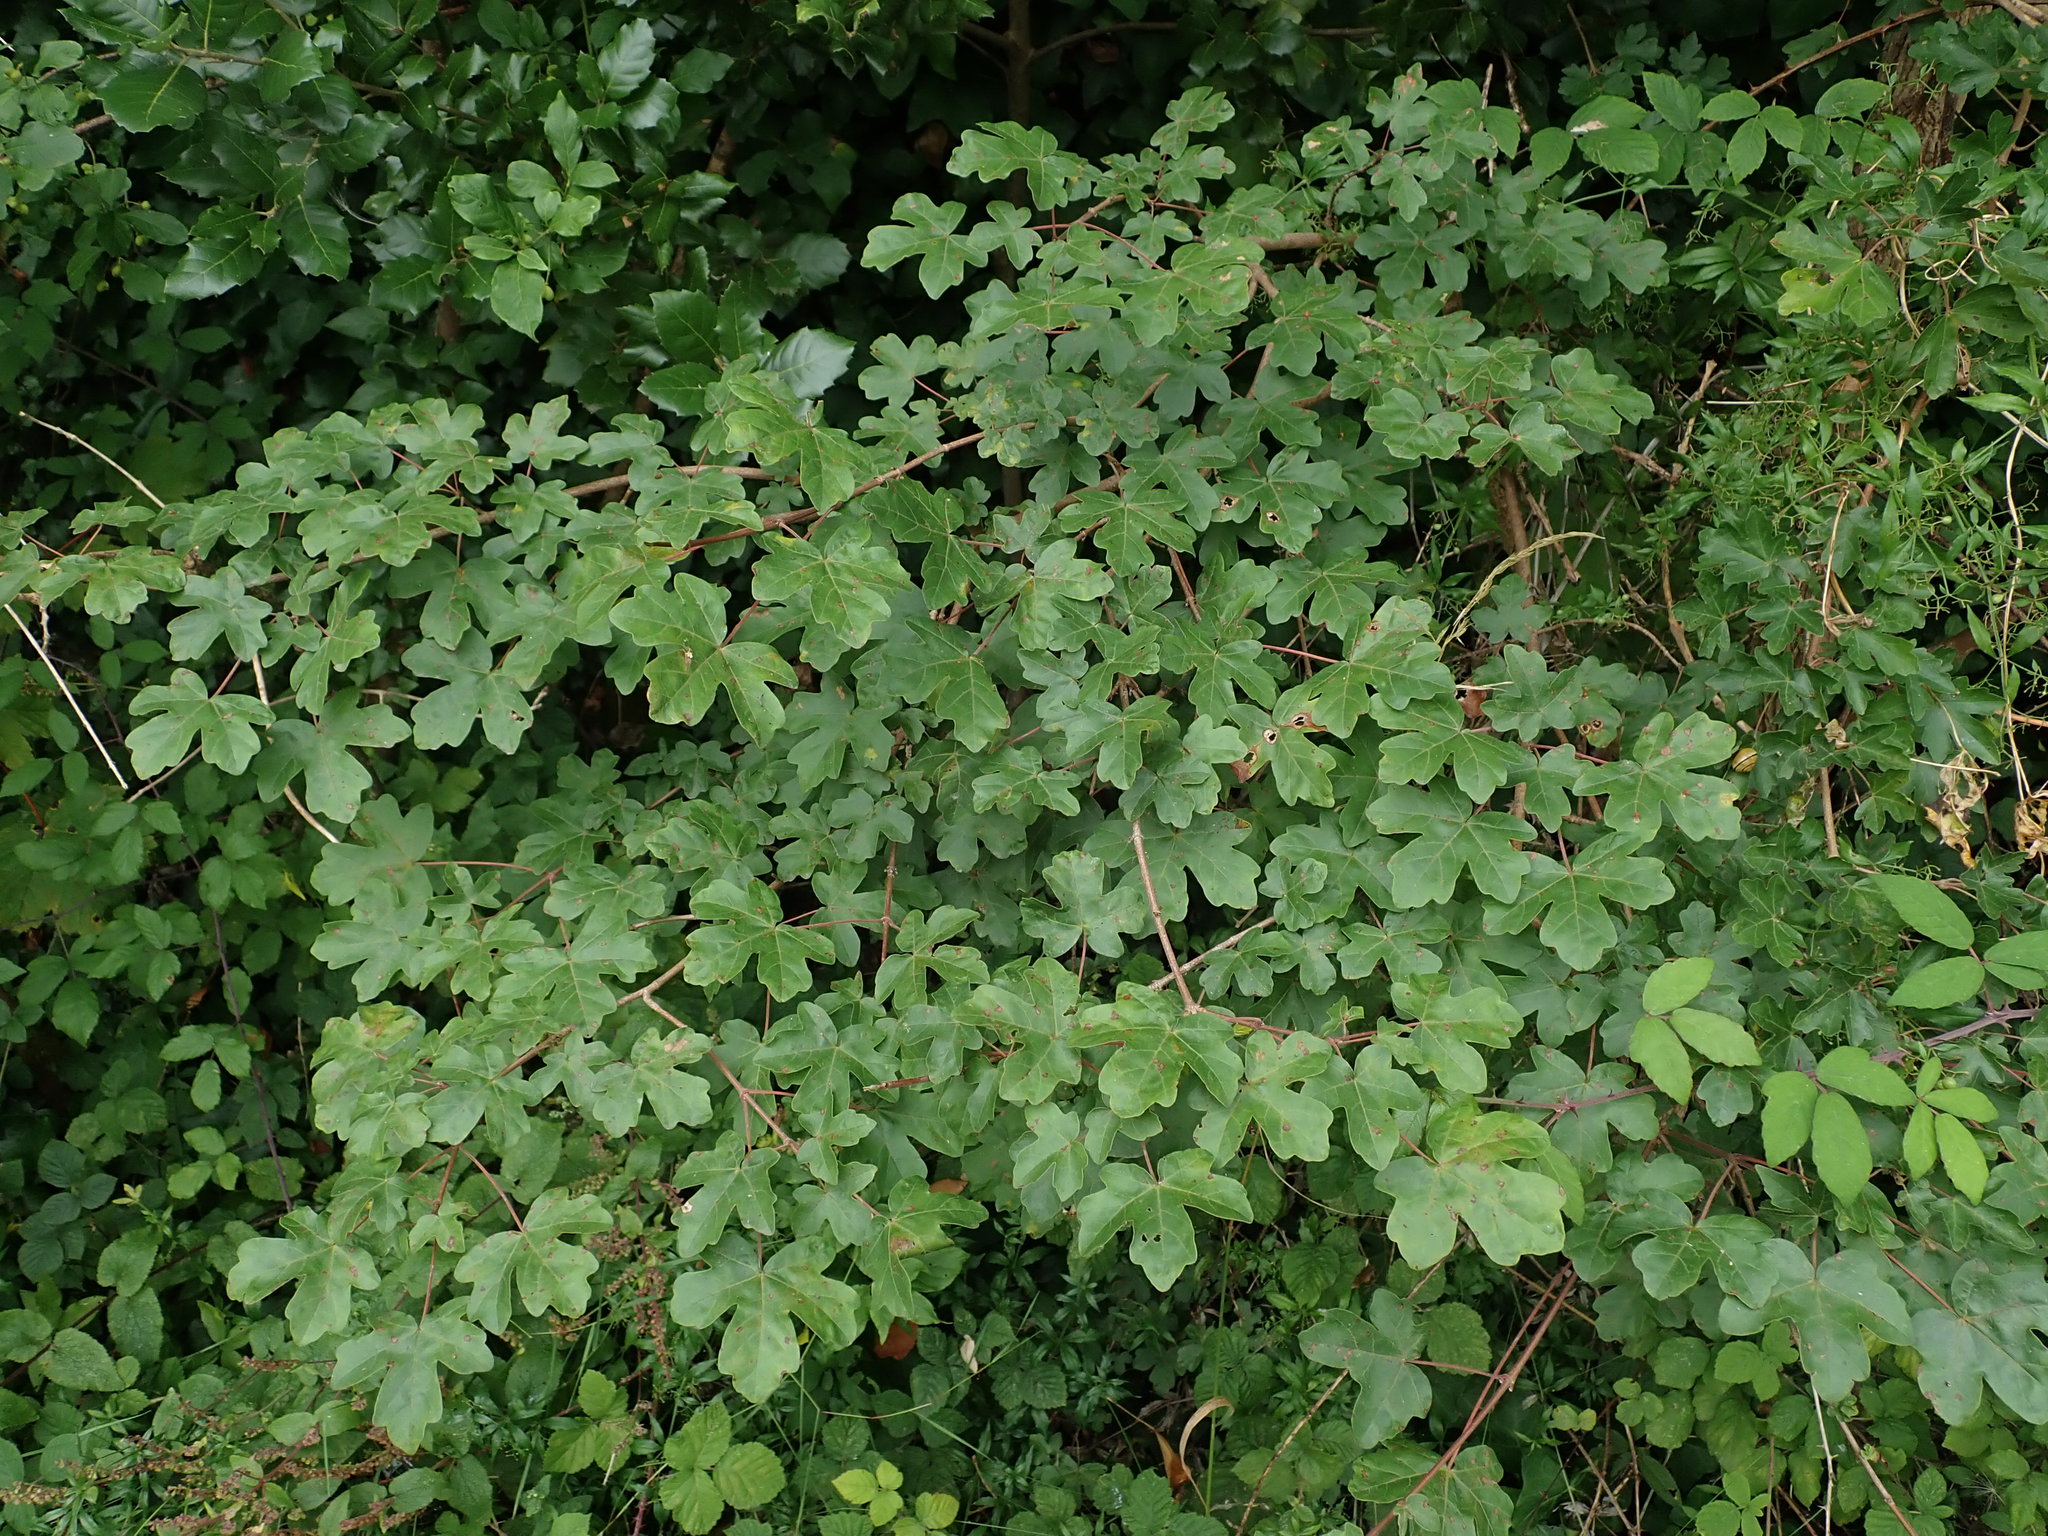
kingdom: Plantae
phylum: Tracheophyta
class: Magnoliopsida
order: Sapindales
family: Sapindaceae
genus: Acer
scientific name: Acer campestre
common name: Field maple
